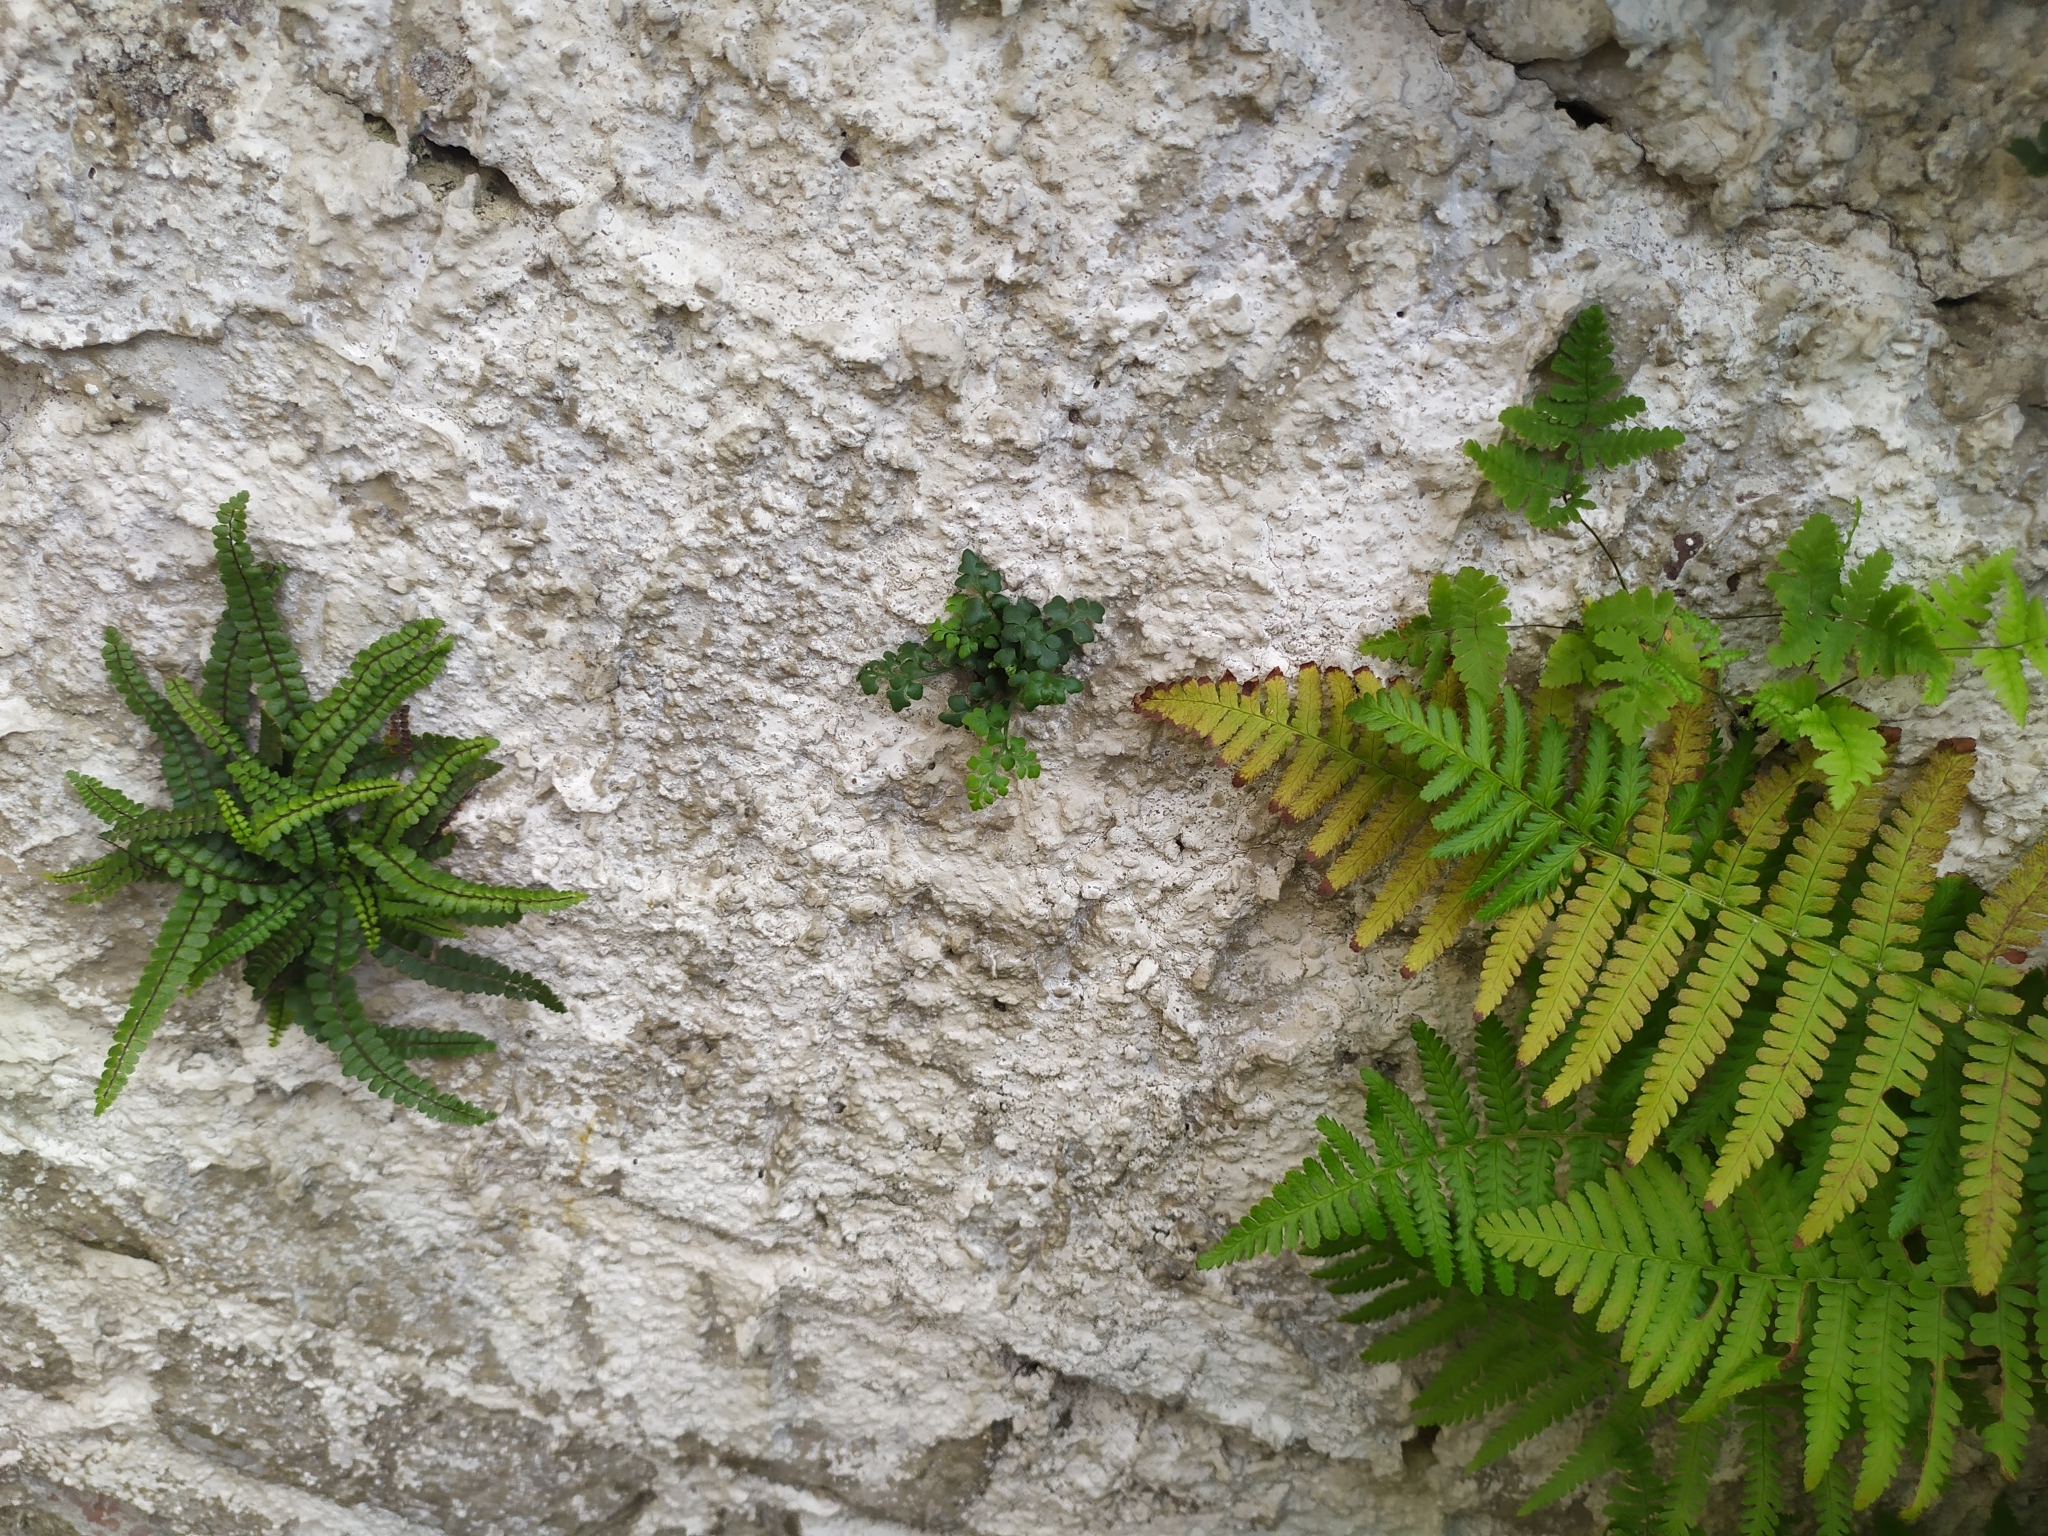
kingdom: Plantae
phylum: Tracheophyta
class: Polypodiopsida
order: Polypodiales
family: Aspleniaceae
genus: Asplenium
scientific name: Asplenium trichomanes
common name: Maidenhair spleenwort
